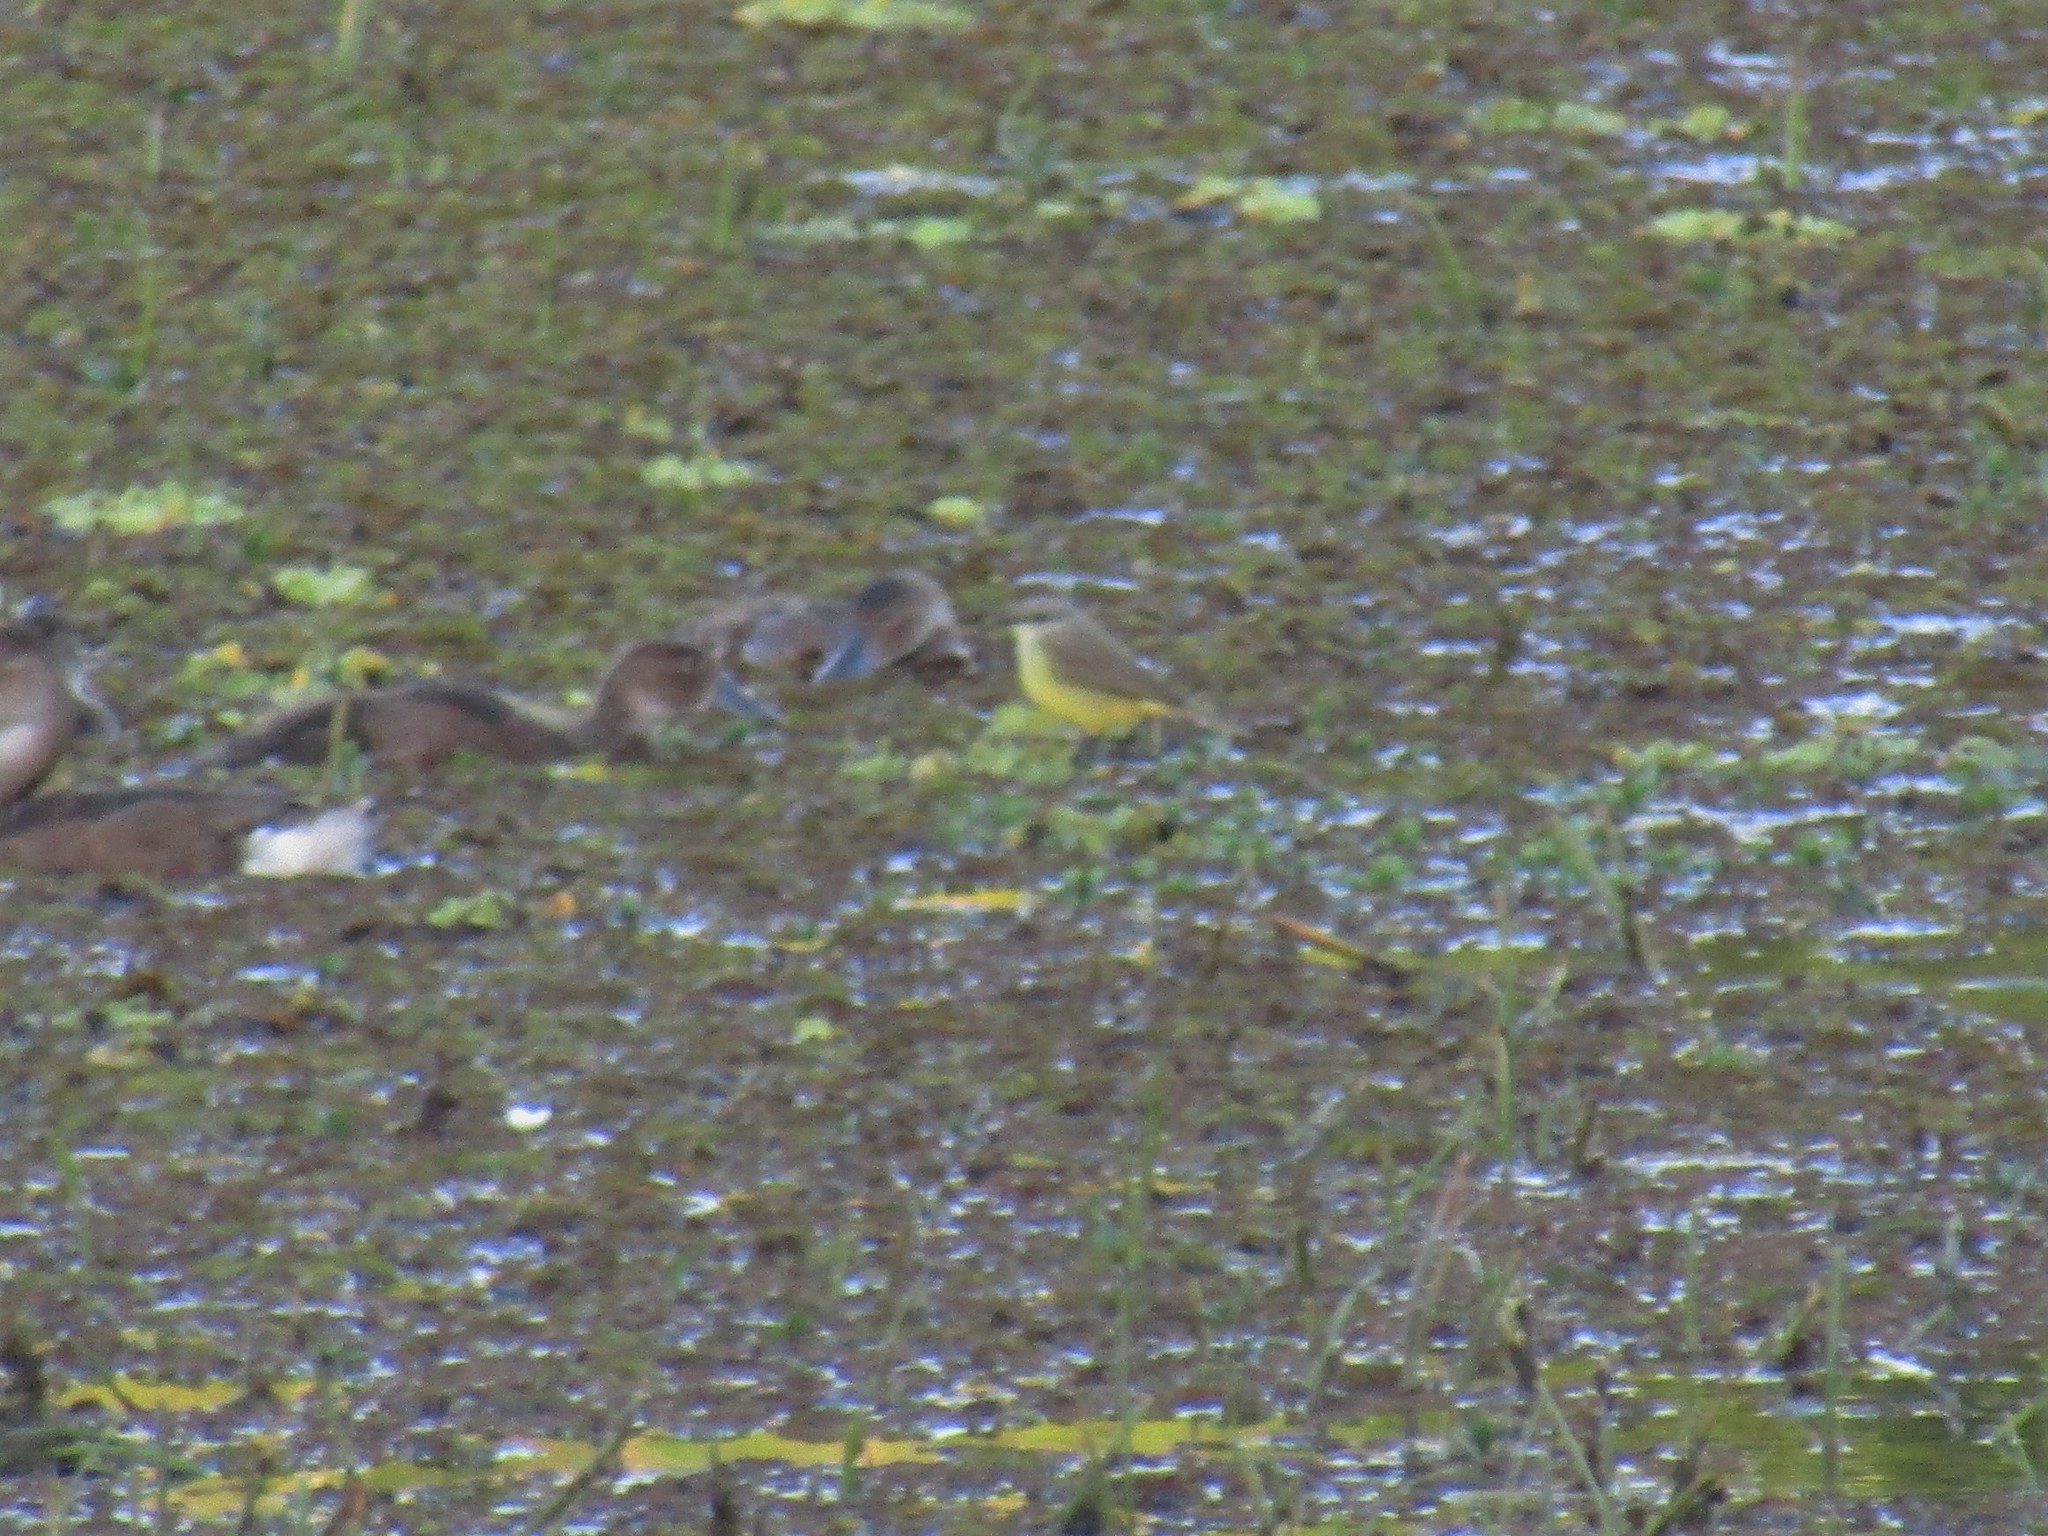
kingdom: Animalia
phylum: Chordata
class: Aves
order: Passeriformes
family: Tyrannidae
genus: Machetornis
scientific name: Machetornis rixosa
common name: Cattle tyrant
